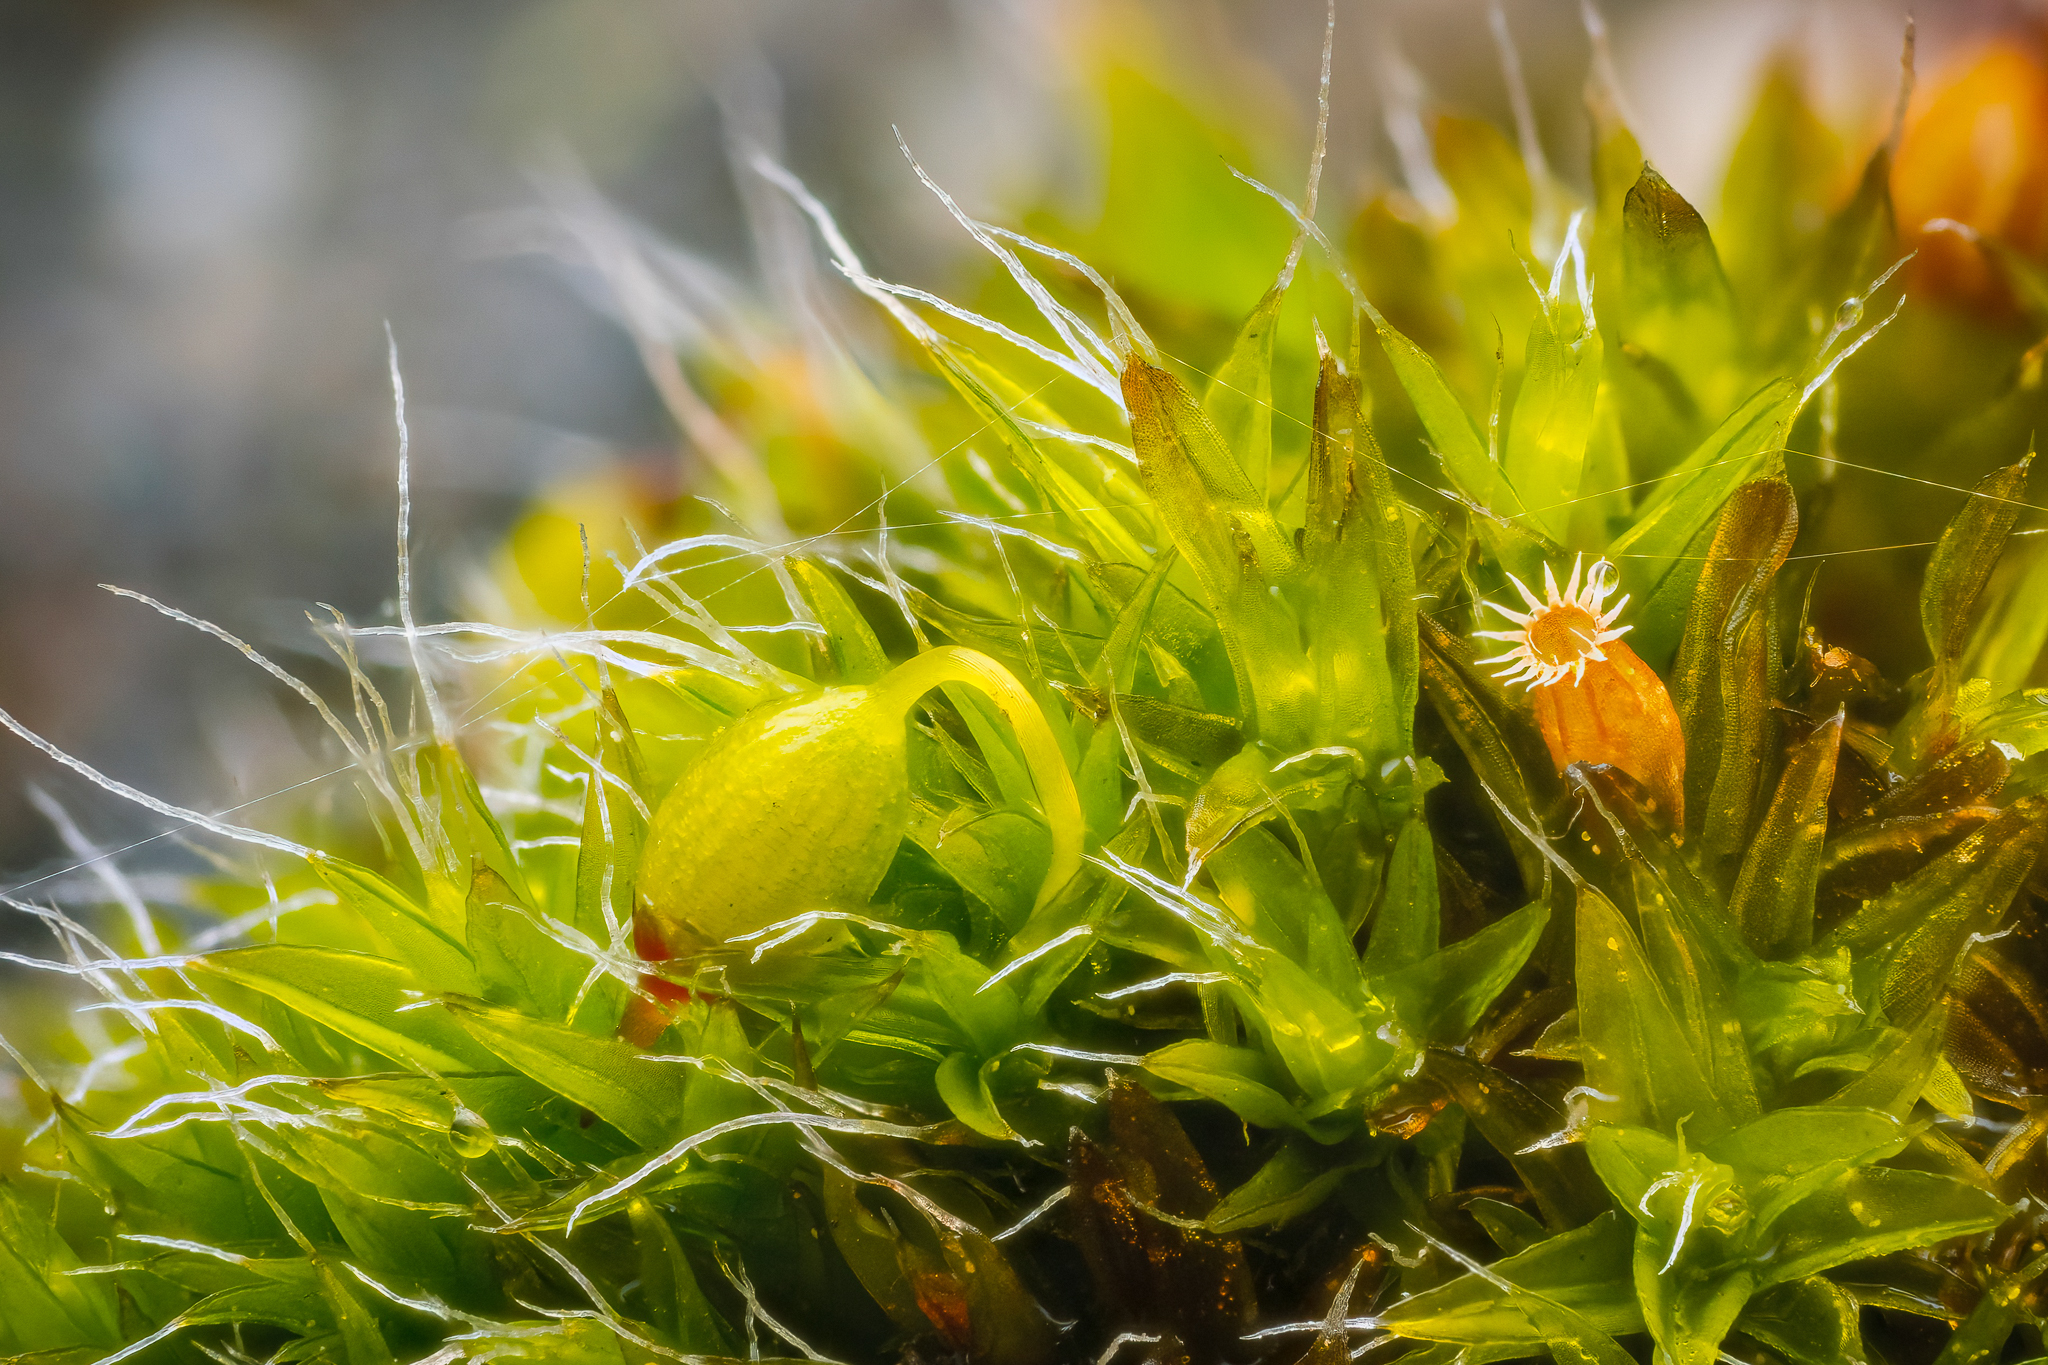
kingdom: Plantae
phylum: Bryophyta
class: Bryopsida
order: Grimmiales
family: Grimmiaceae
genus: Grimmia
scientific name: Grimmia pulvinata
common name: Grey-cushioned grimmia
